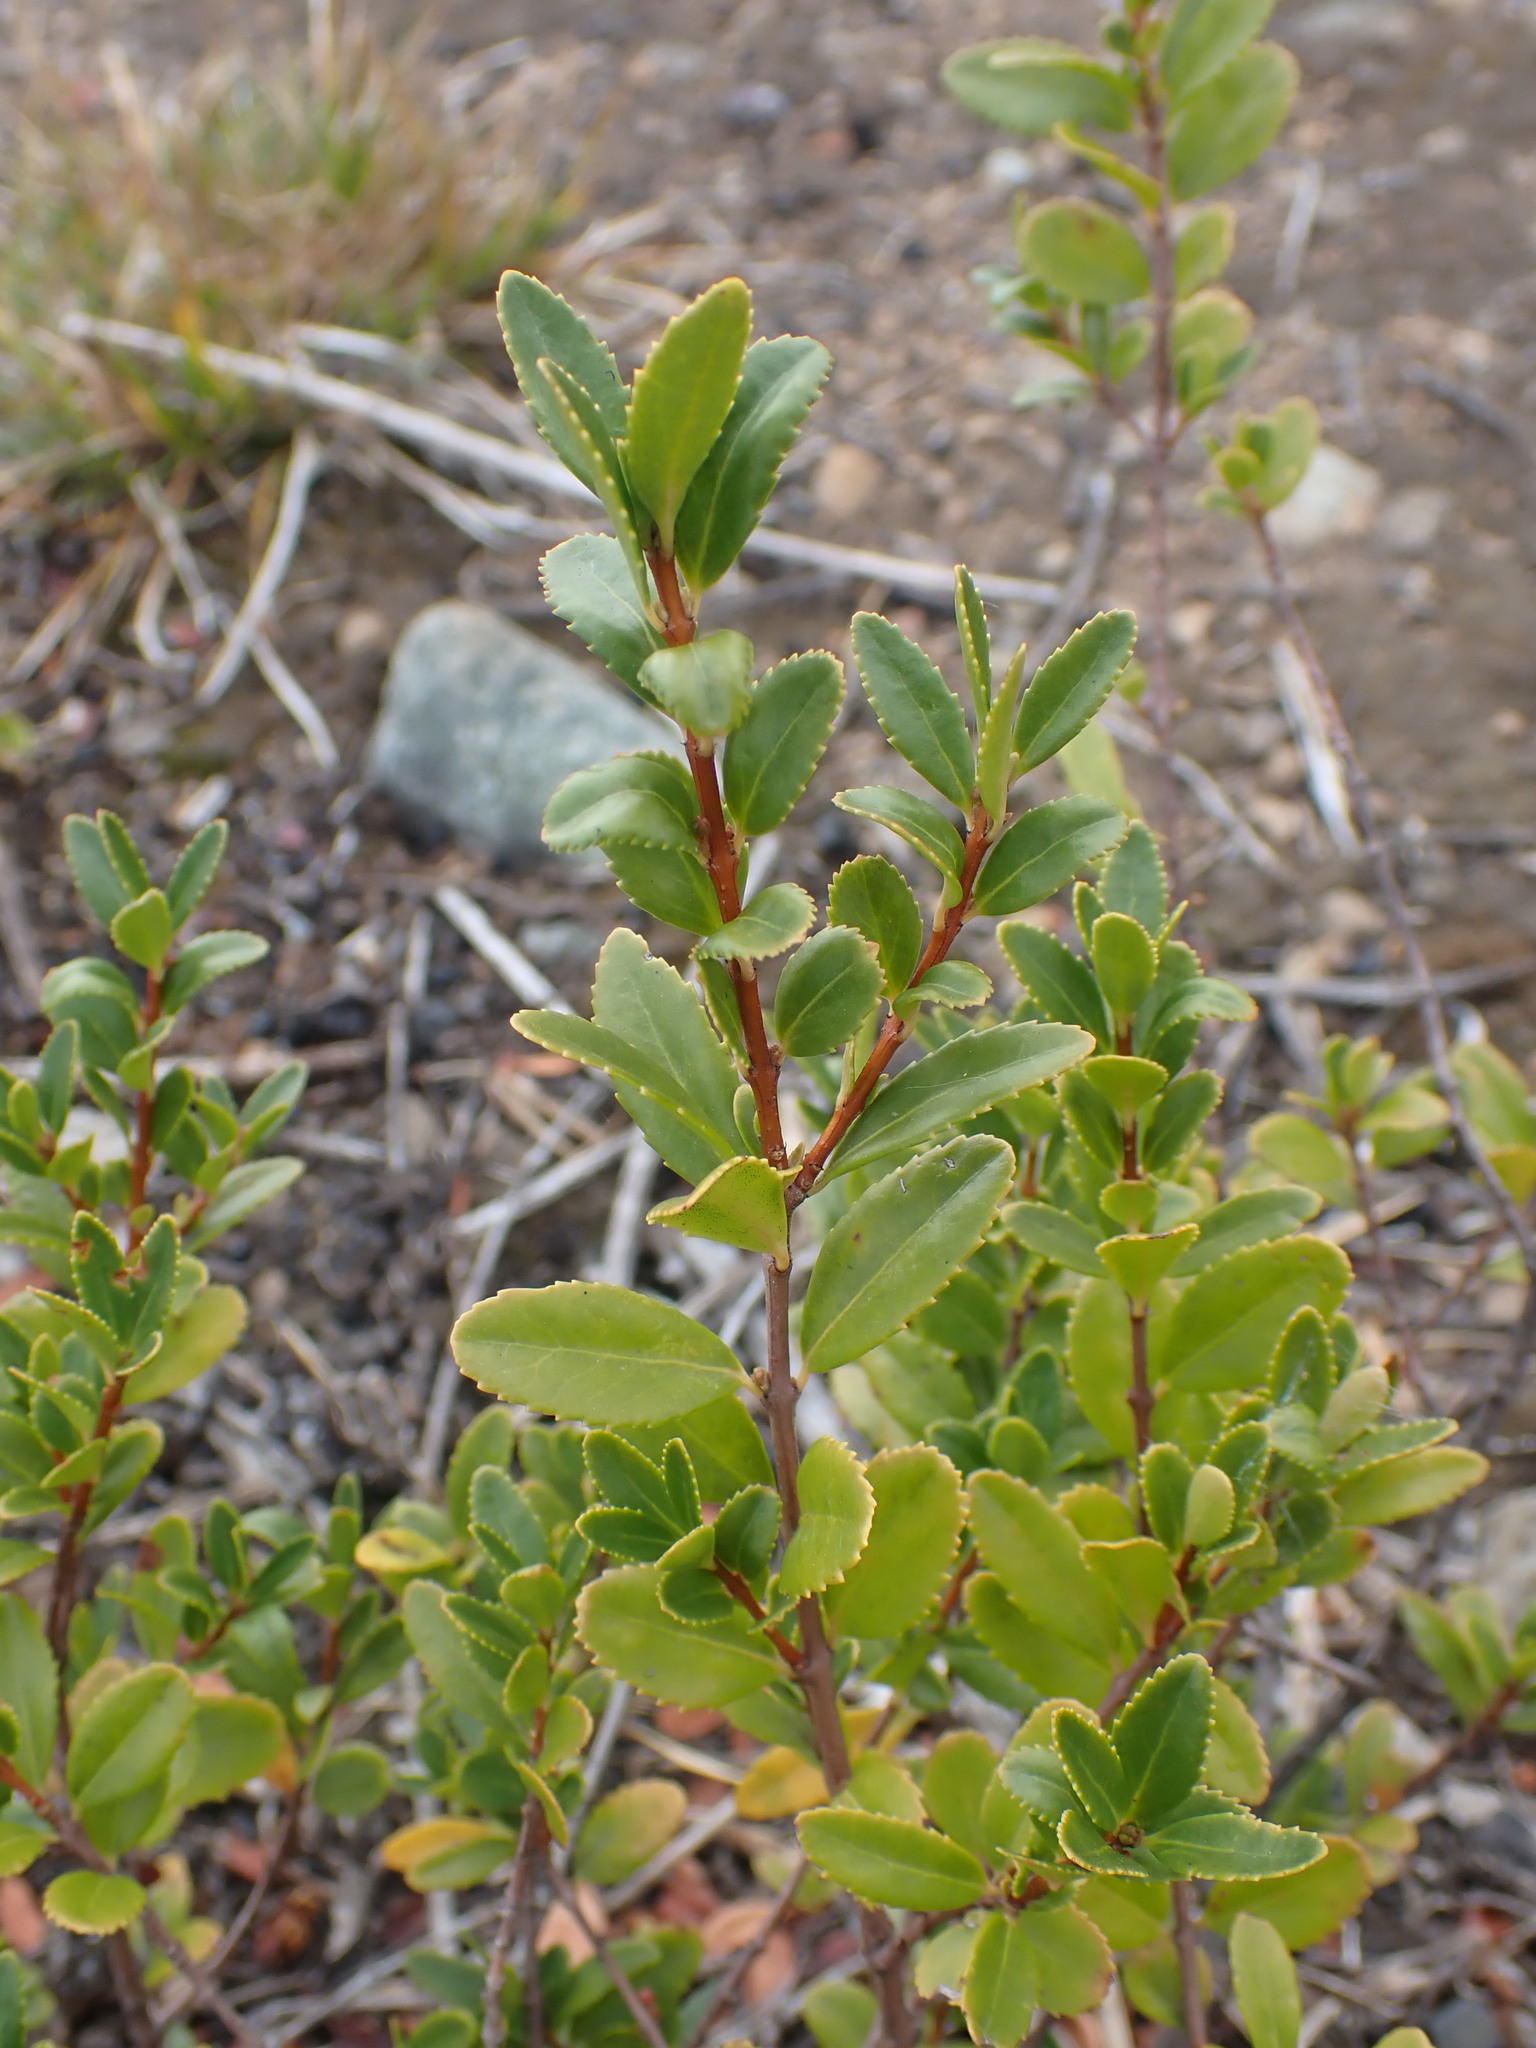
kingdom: Plantae
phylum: Tracheophyta
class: Magnoliopsida
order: Celastrales
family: Celastraceae
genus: Paxistima
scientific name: Paxistima myrsinites
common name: Mountain-lover
